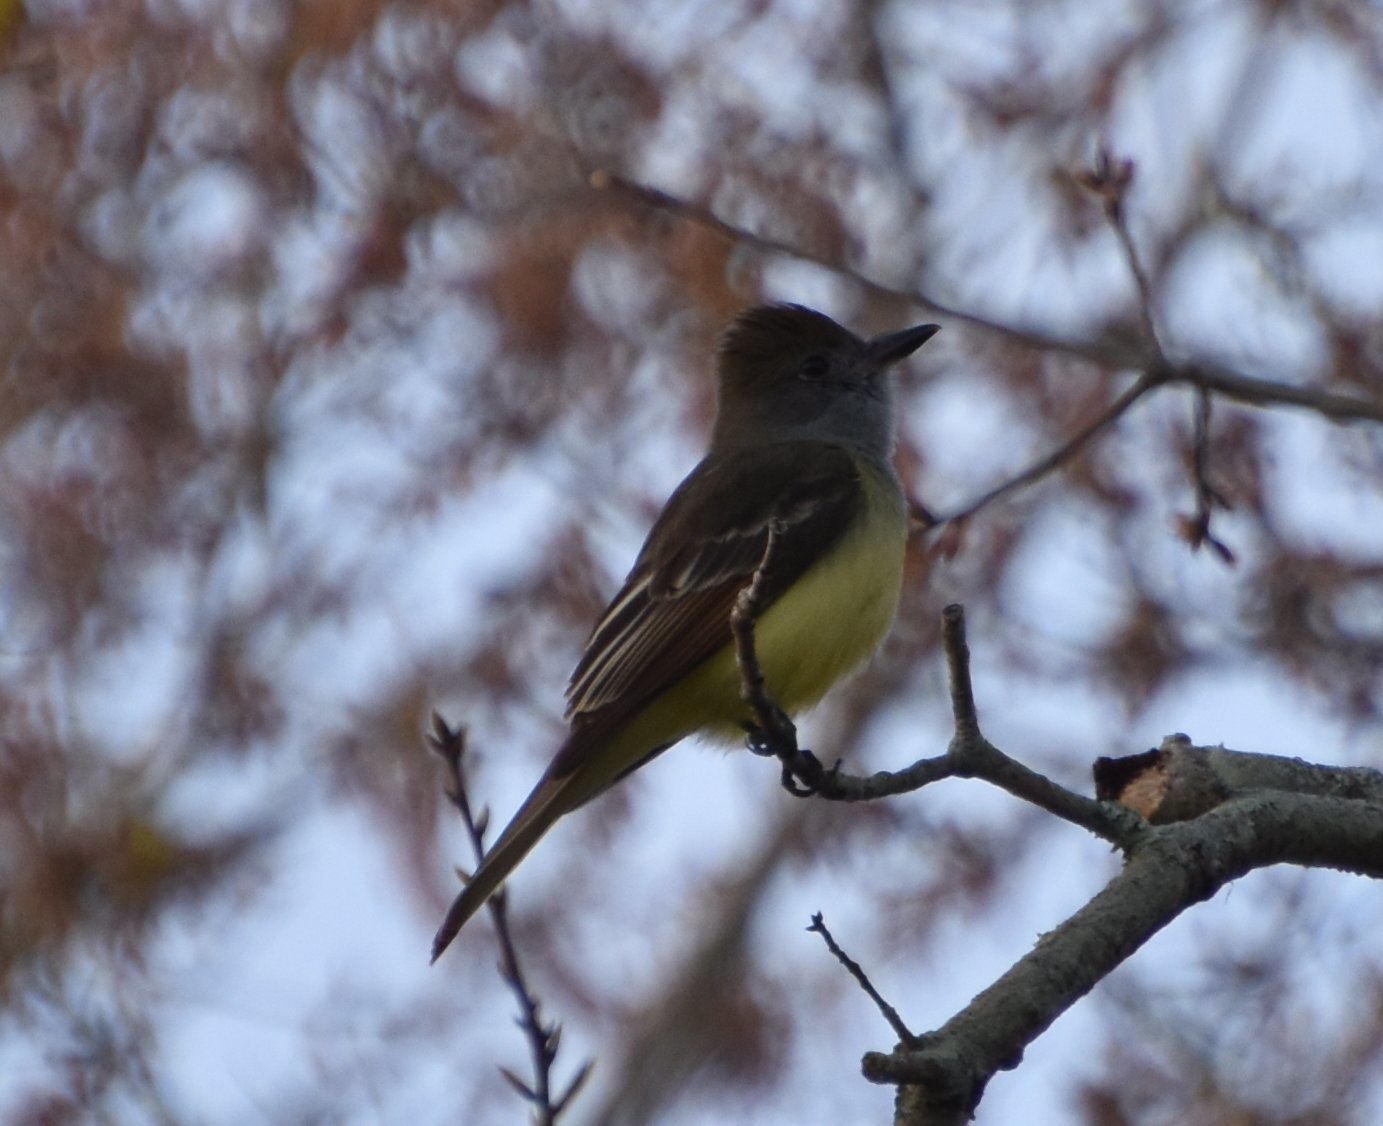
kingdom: Animalia
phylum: Chordata
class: Aves
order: Passeriformes
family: Tyrannidae
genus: Myiarchus
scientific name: Myiarchus crinitus
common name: Great crested flycatcher
